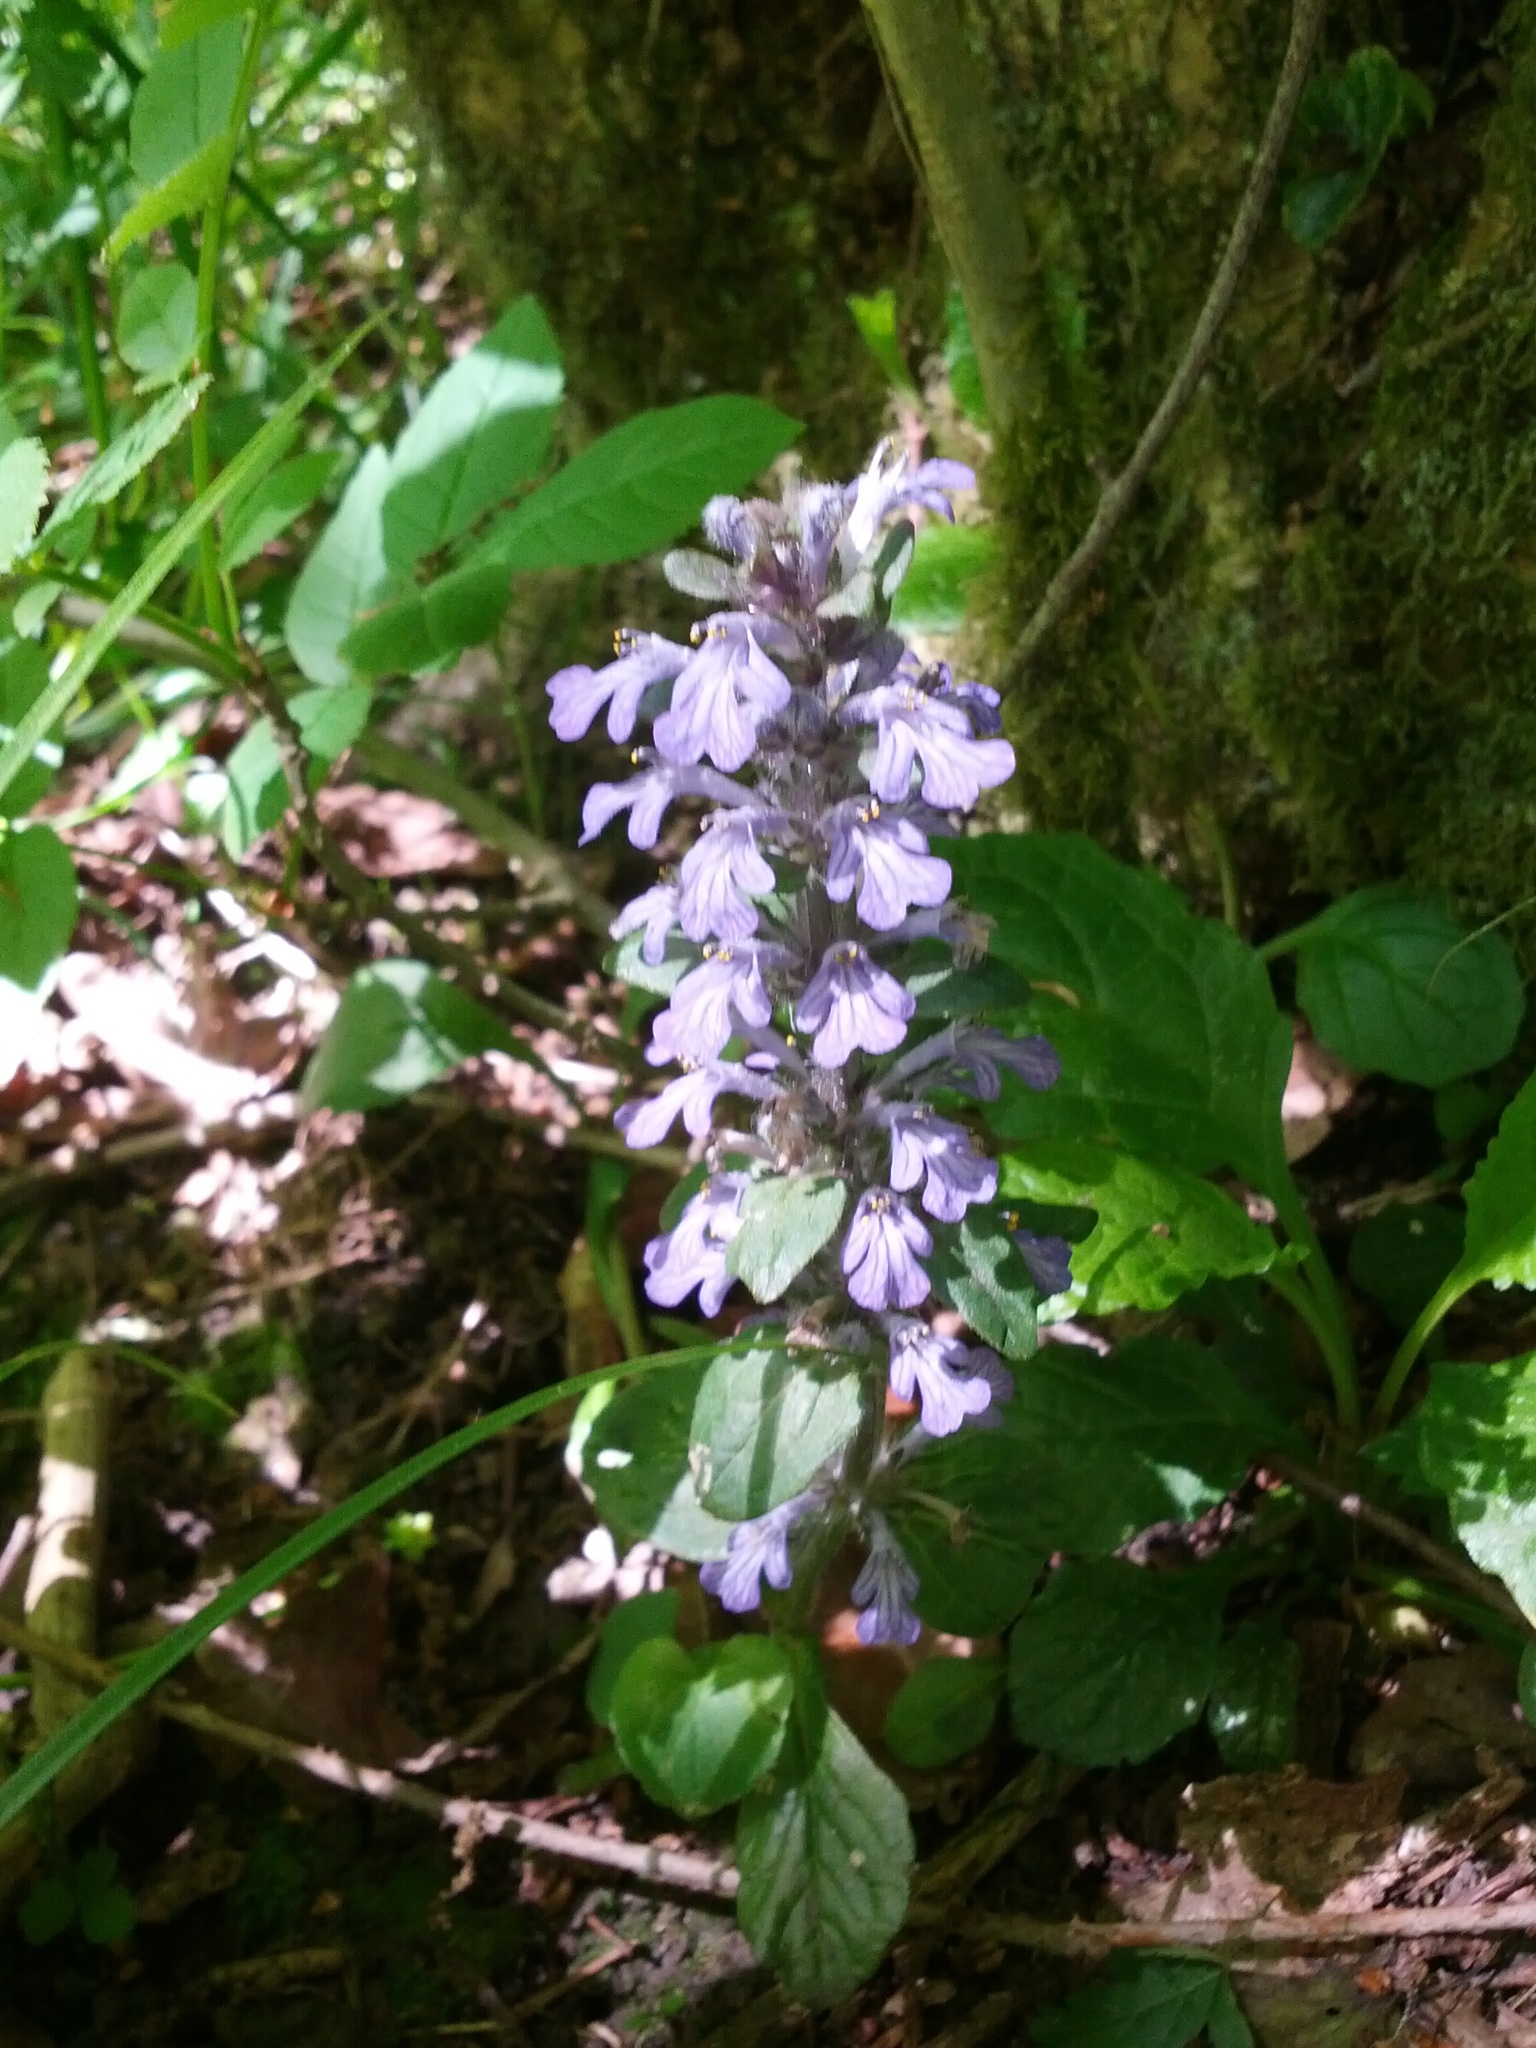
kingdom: Plantae
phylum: Tracheophyta
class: Magnoliopsida
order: Lamiales
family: Lamiaceae
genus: Ajuga
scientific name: Ajuga reptans
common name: Bugle
